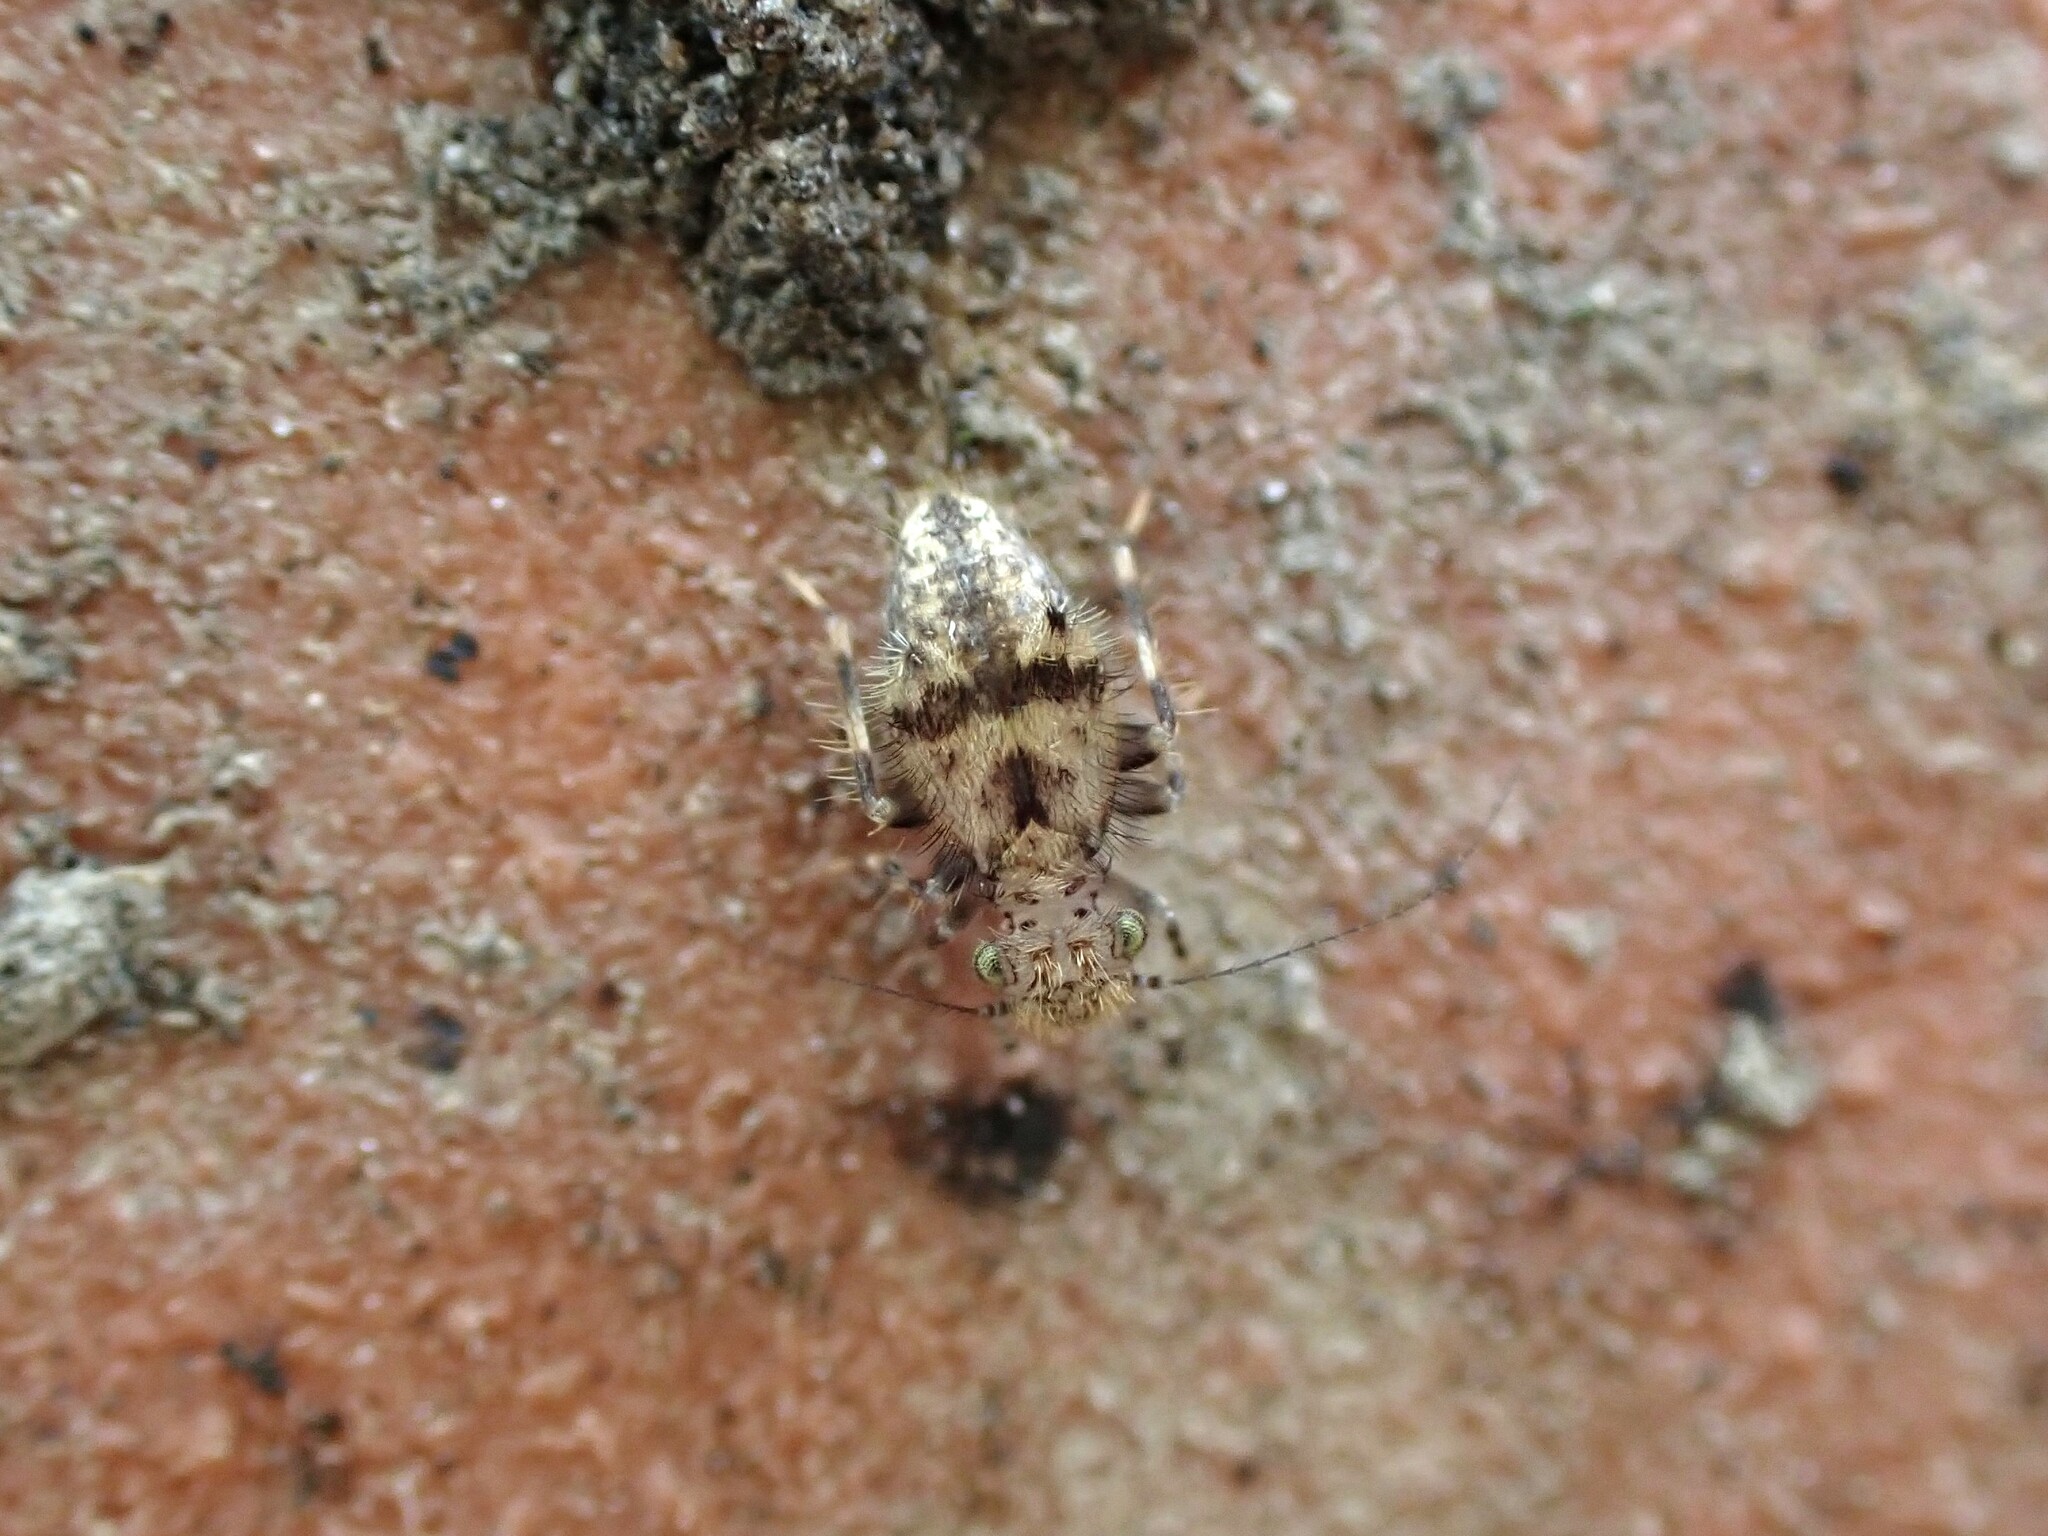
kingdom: Animalia
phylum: Arthropoda
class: Insecta
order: Psocodea
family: Lepidopsocidae
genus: Pteroxanium
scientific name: Pteroxanium kelloggi
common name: Bark lice
